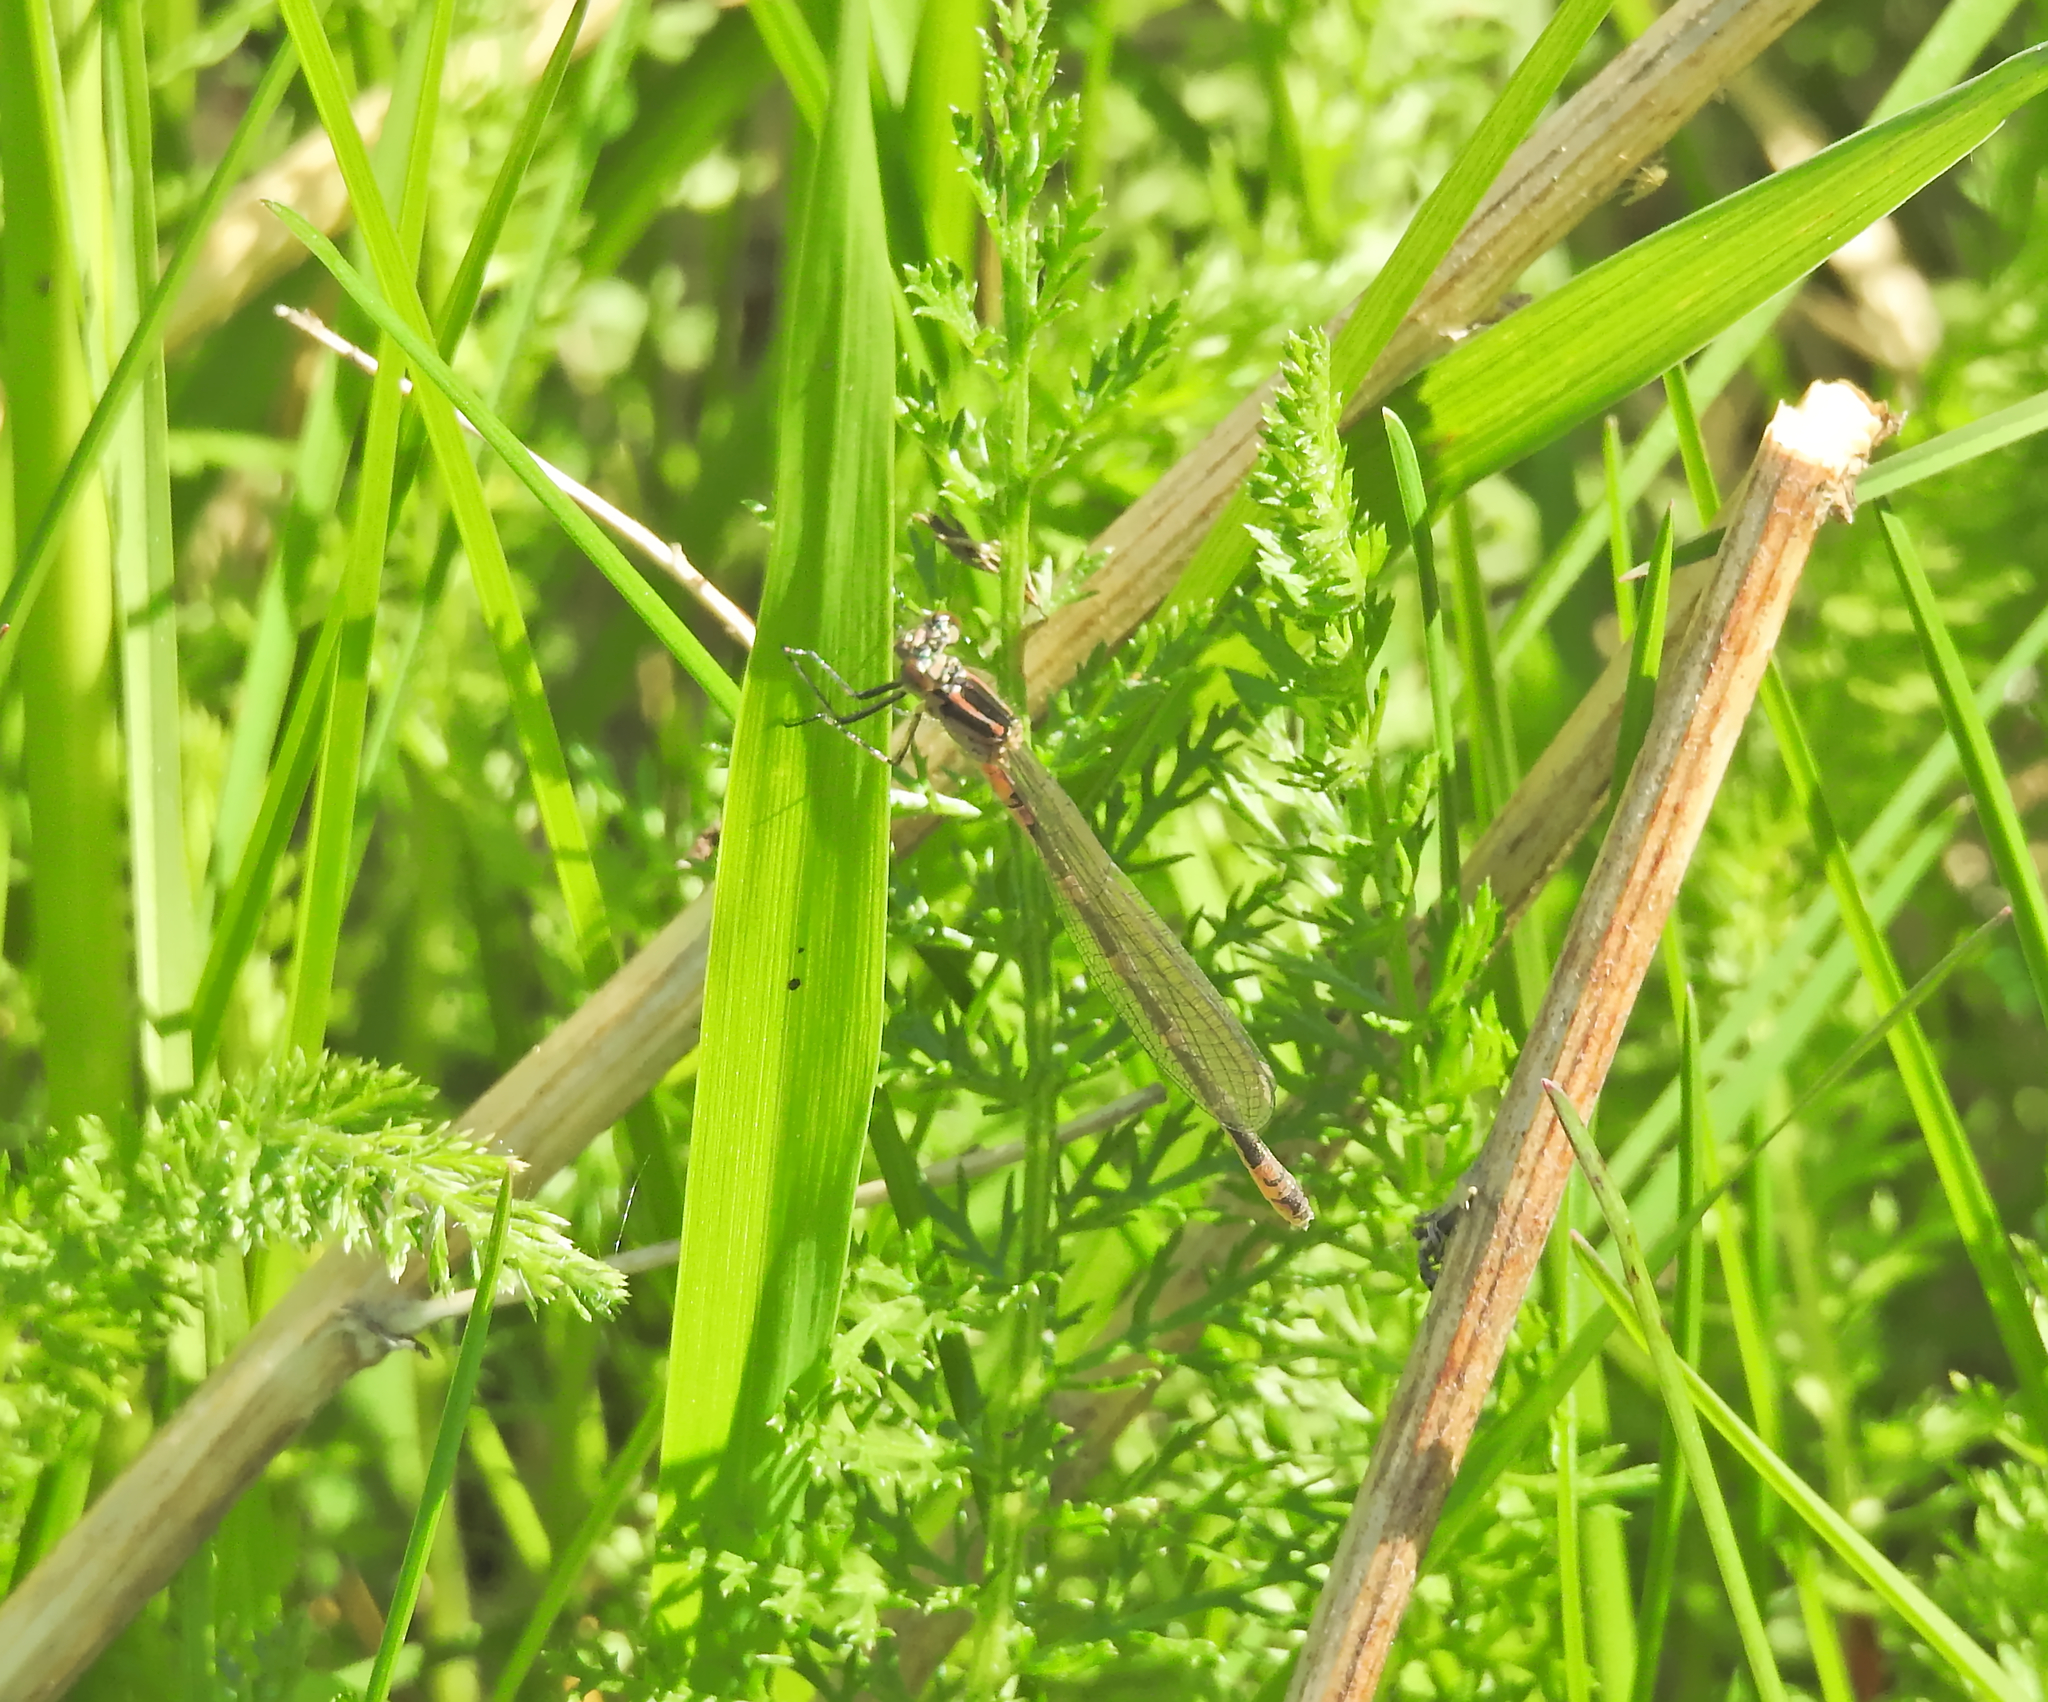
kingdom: Animalia
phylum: Arthropoda
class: Insecta
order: Odonata
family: Coenagrionidae
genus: Coenagrion
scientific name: Coenagrion pulchellum
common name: Variable bluet
